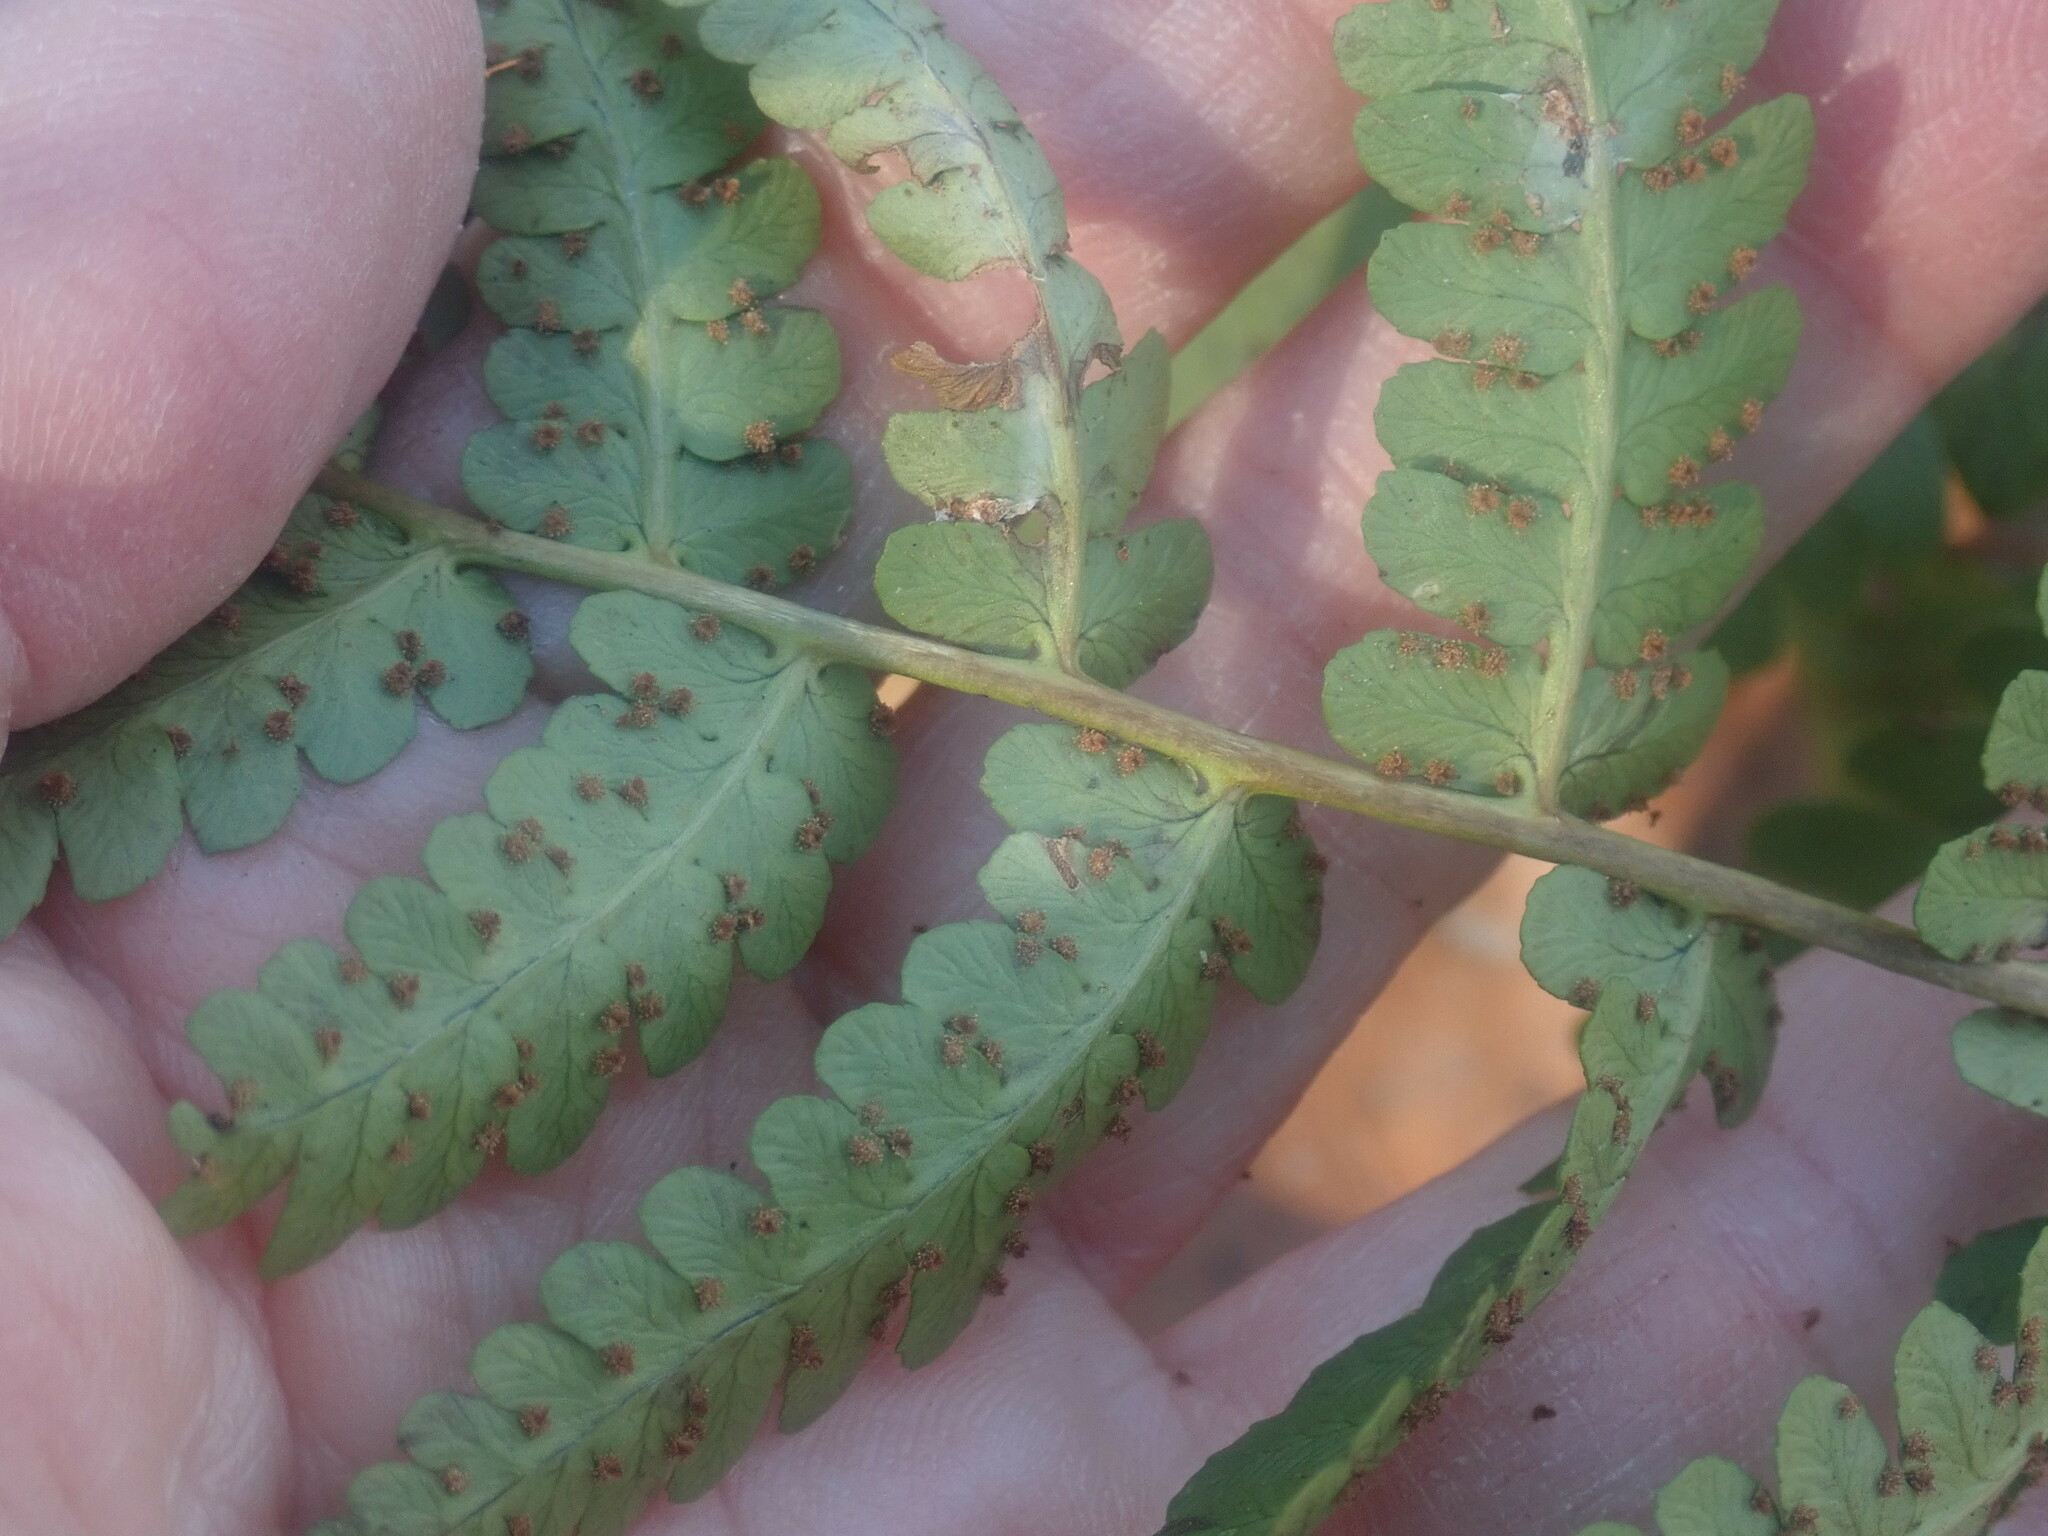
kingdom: Plantae
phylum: Tracheophyta
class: Polypodiopsida
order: Polypodiales
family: Dryopteridaceae
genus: Dryopteris
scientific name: Dryopteris marginalis
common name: Marginal wood fern
